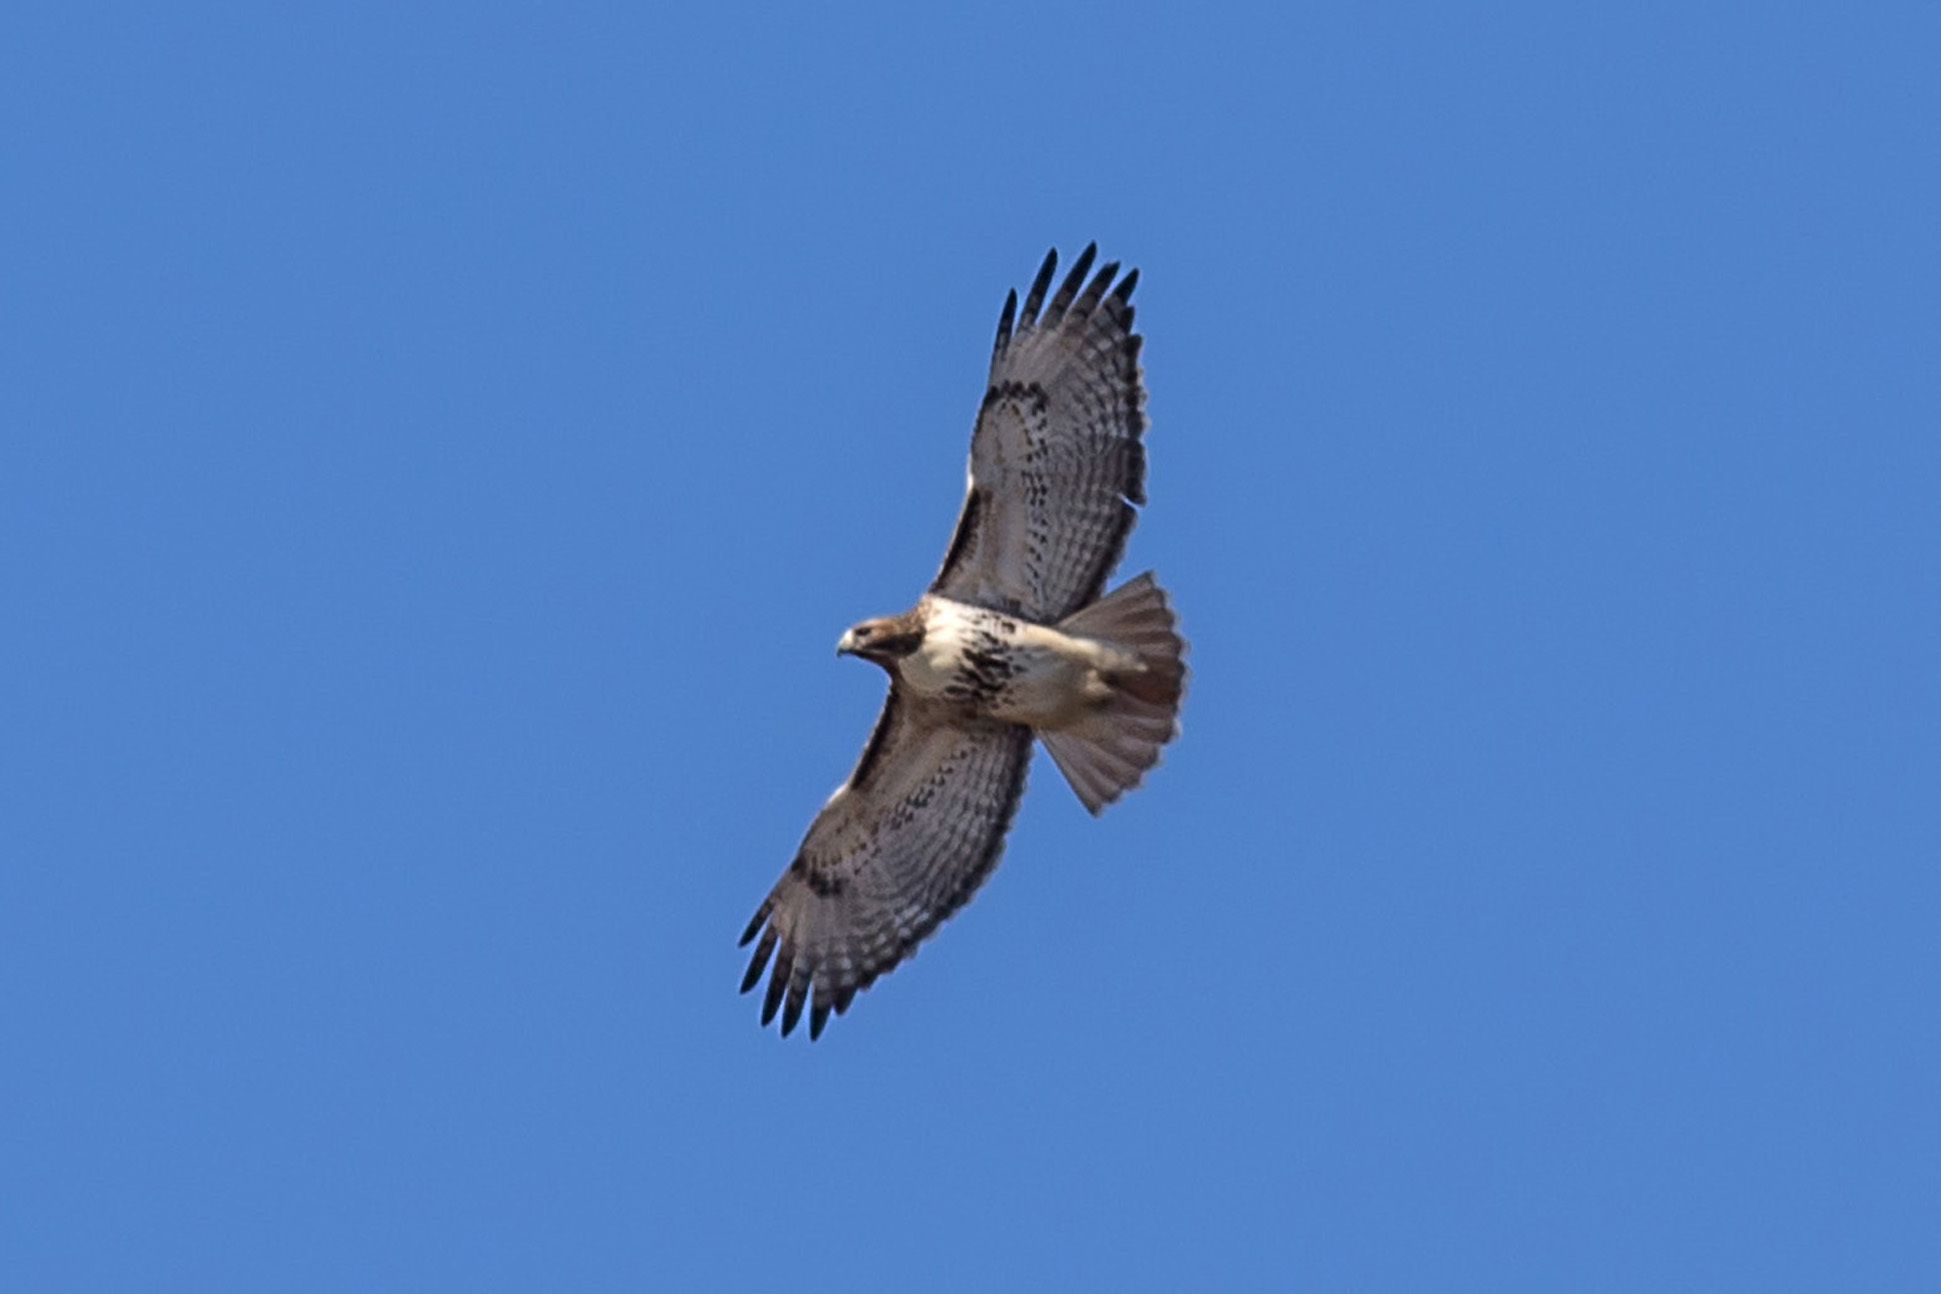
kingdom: Animalia
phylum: Chordata
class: Aves
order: Accipitriformes
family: Accipitridae
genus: Buteo
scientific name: Buteo jamaicensis
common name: Red-tailed hawk
